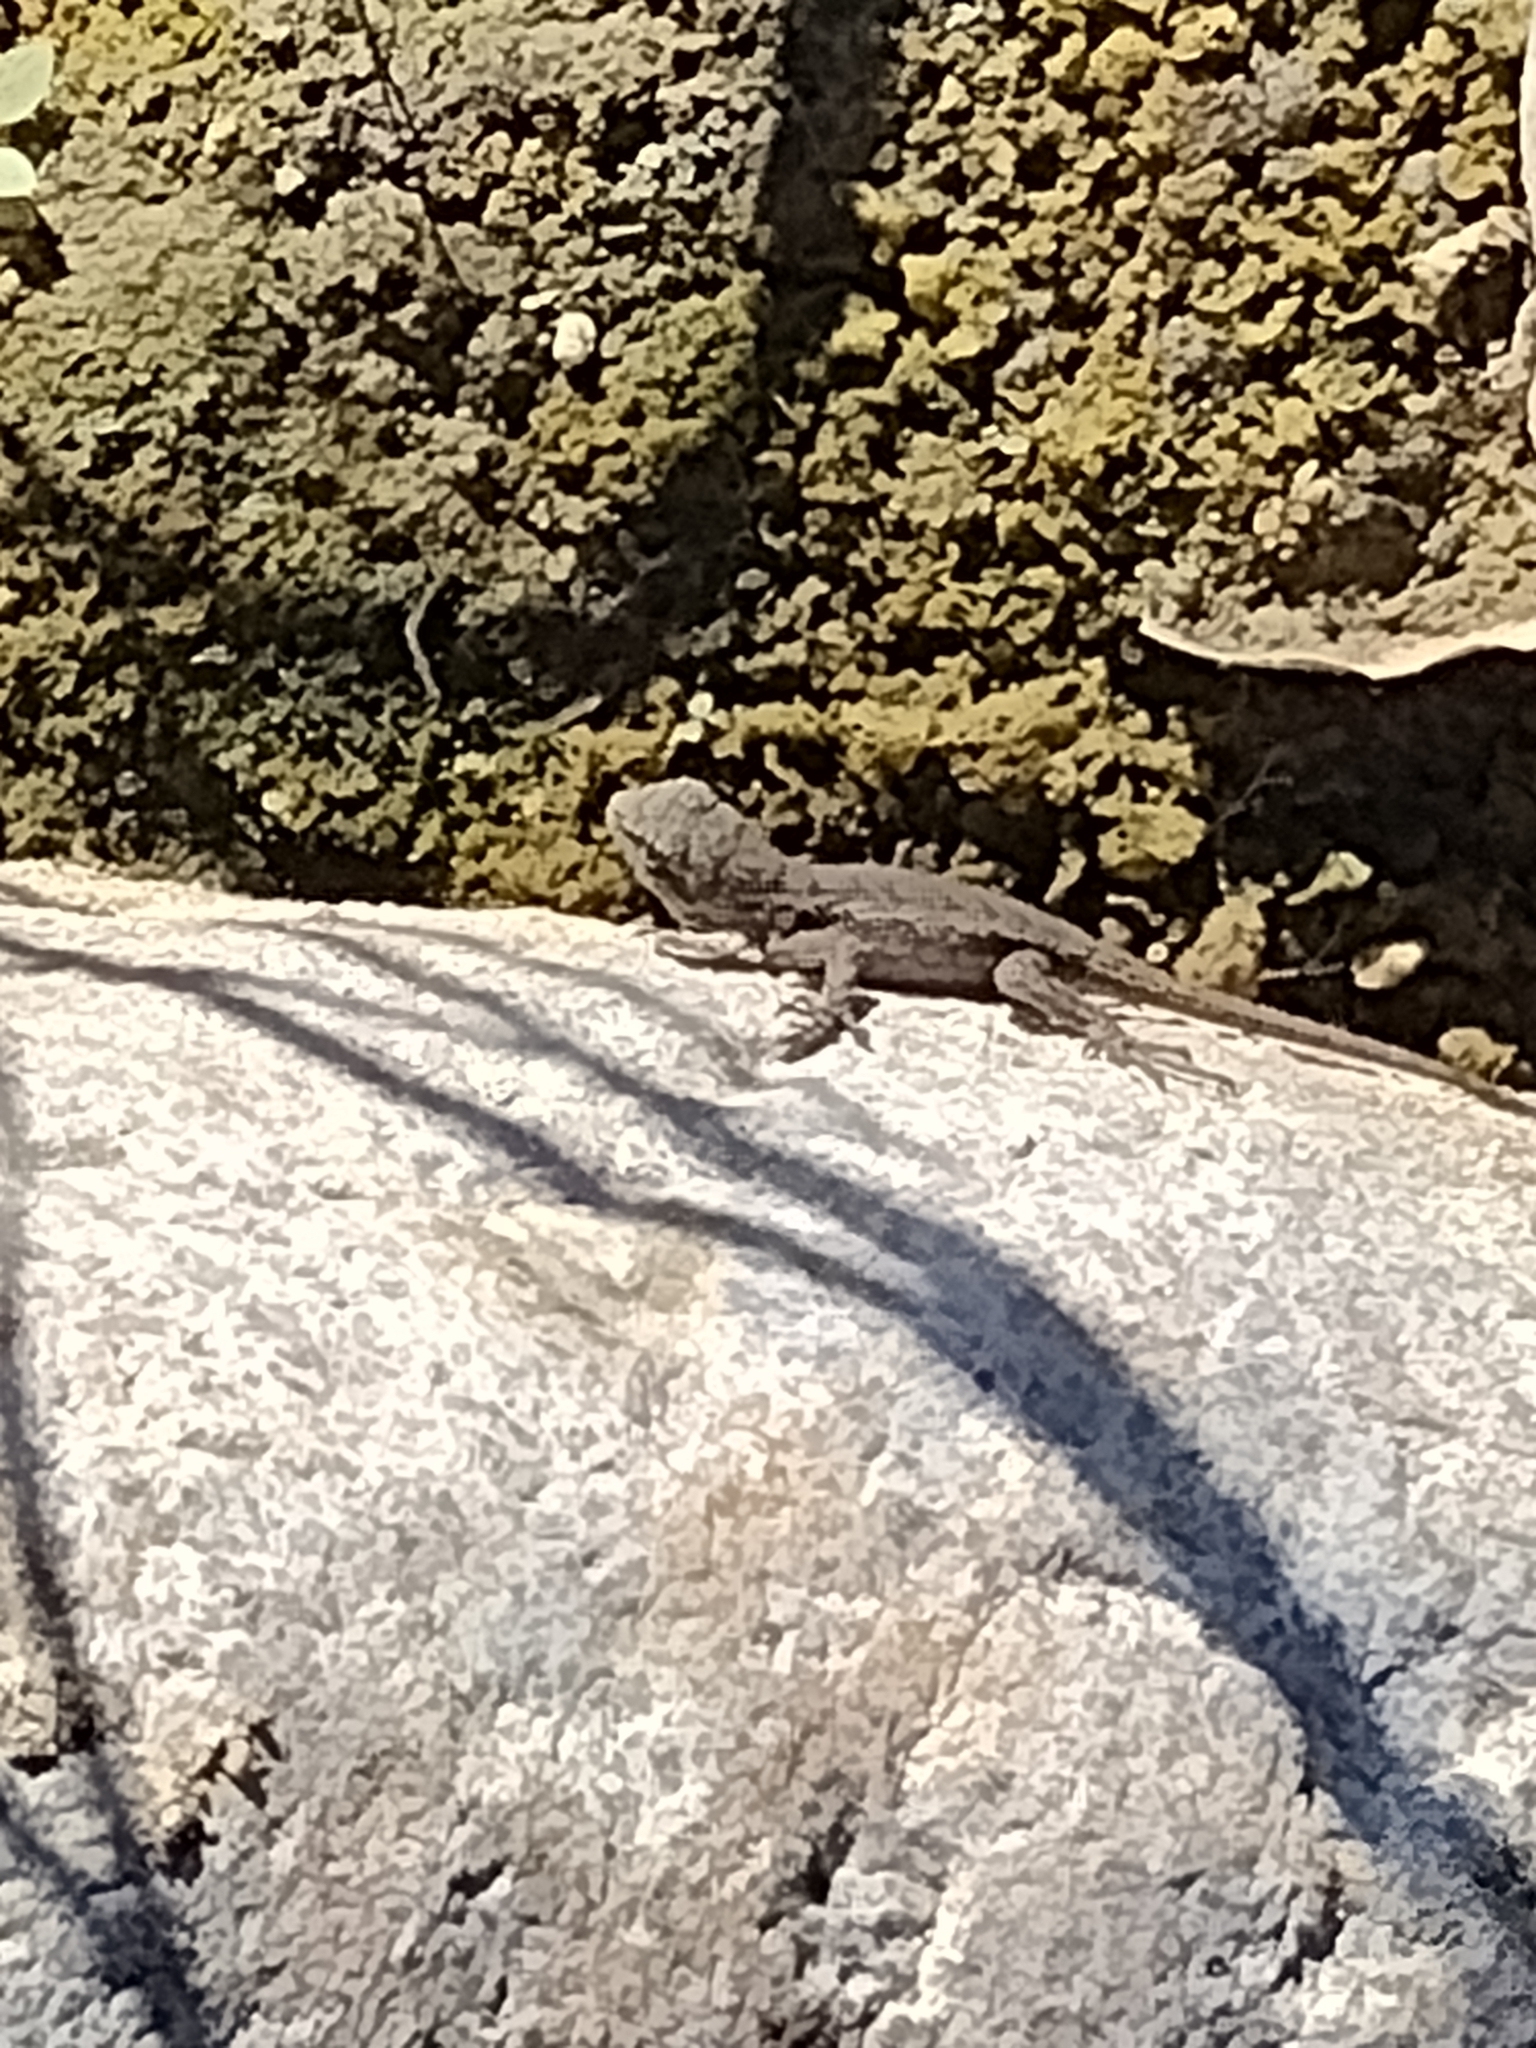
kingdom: Animalia
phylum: Chordata
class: Squamata
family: Phrynosomatidae
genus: Sceloporus
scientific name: Sceloporus occidentalis
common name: Western fence lizard
